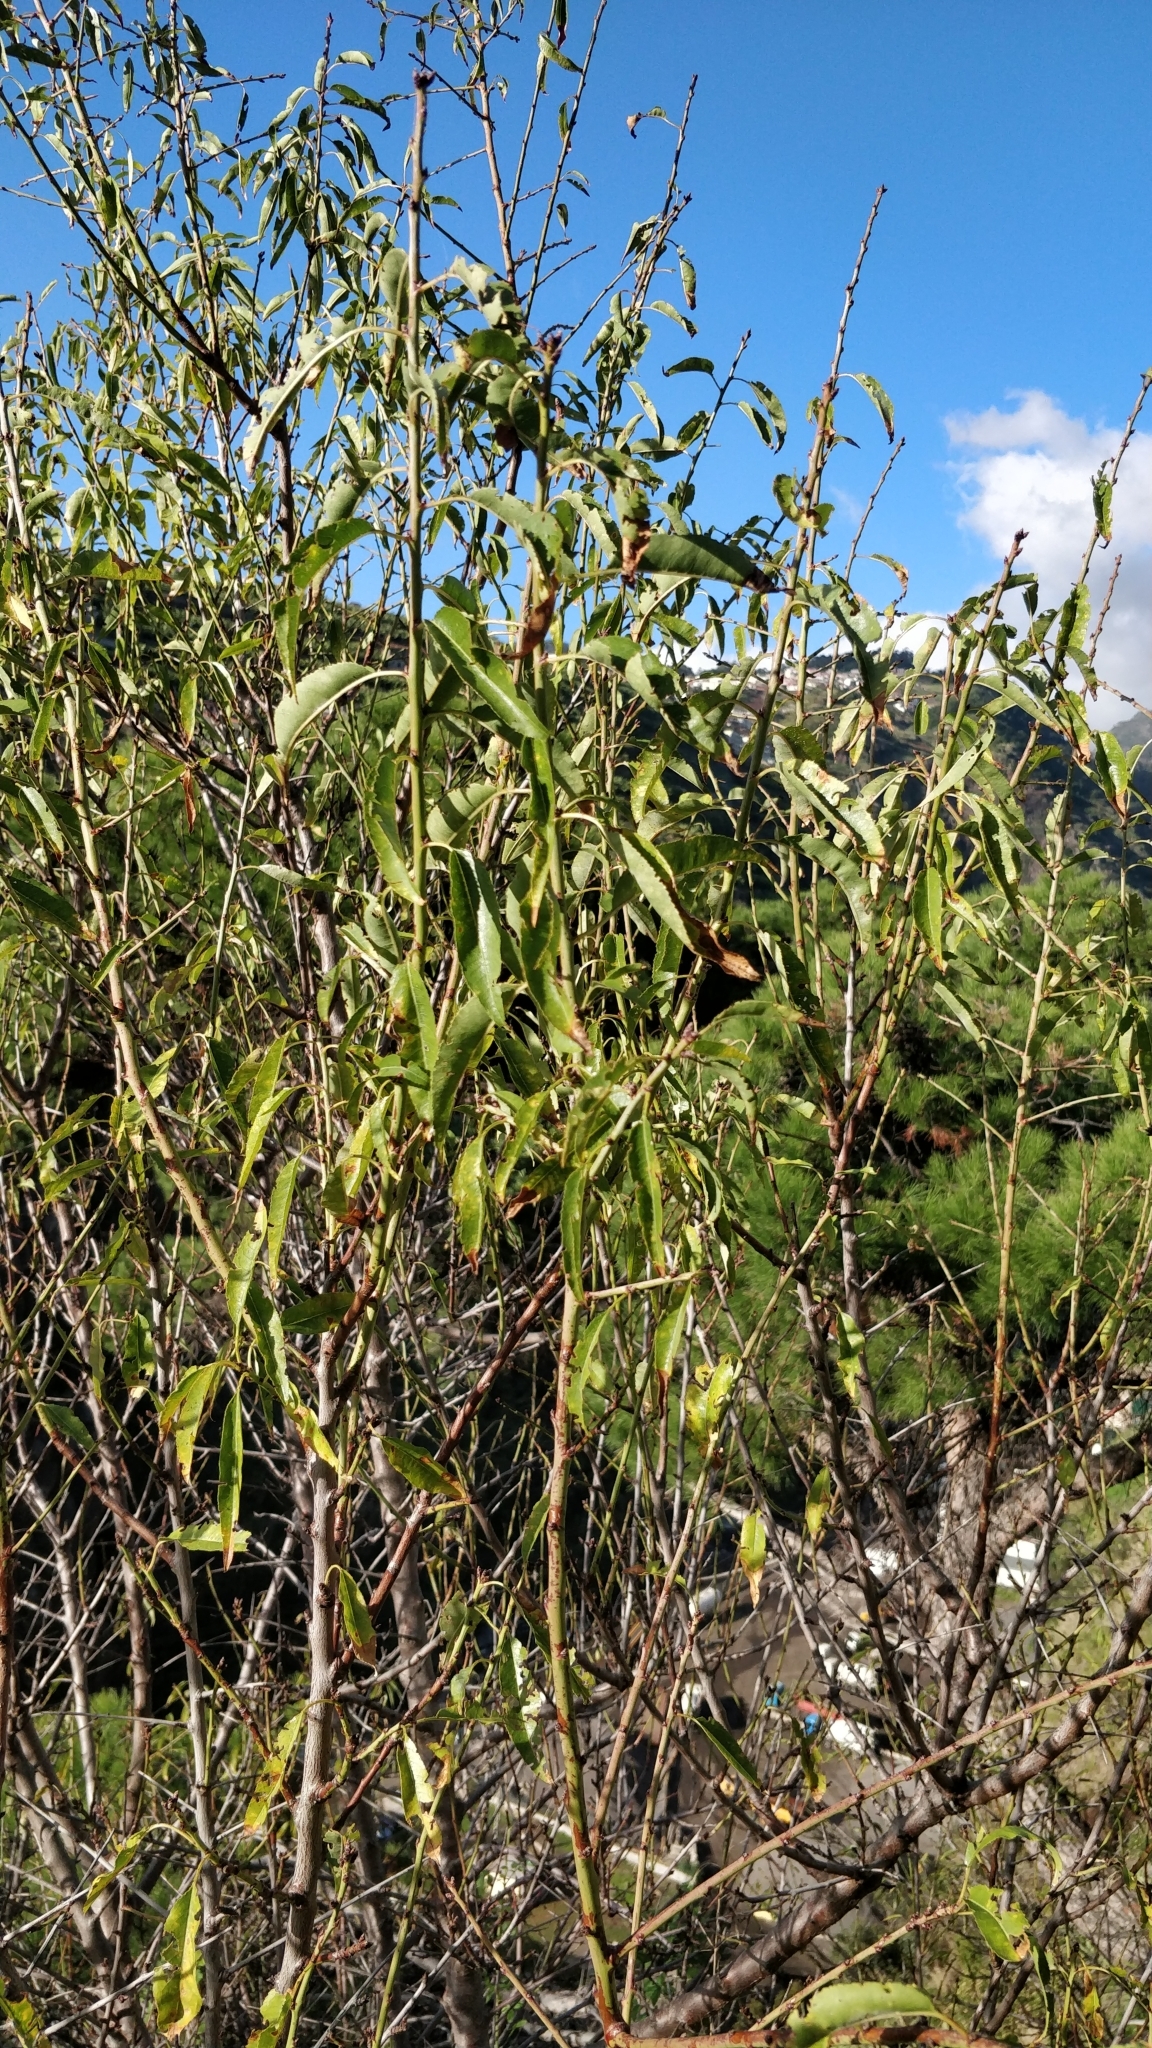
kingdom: Plantae
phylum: Tracheophyta
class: Magnoliopsida
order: Rosales
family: Rosaceae
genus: Prunus
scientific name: Prunus amygdalus
